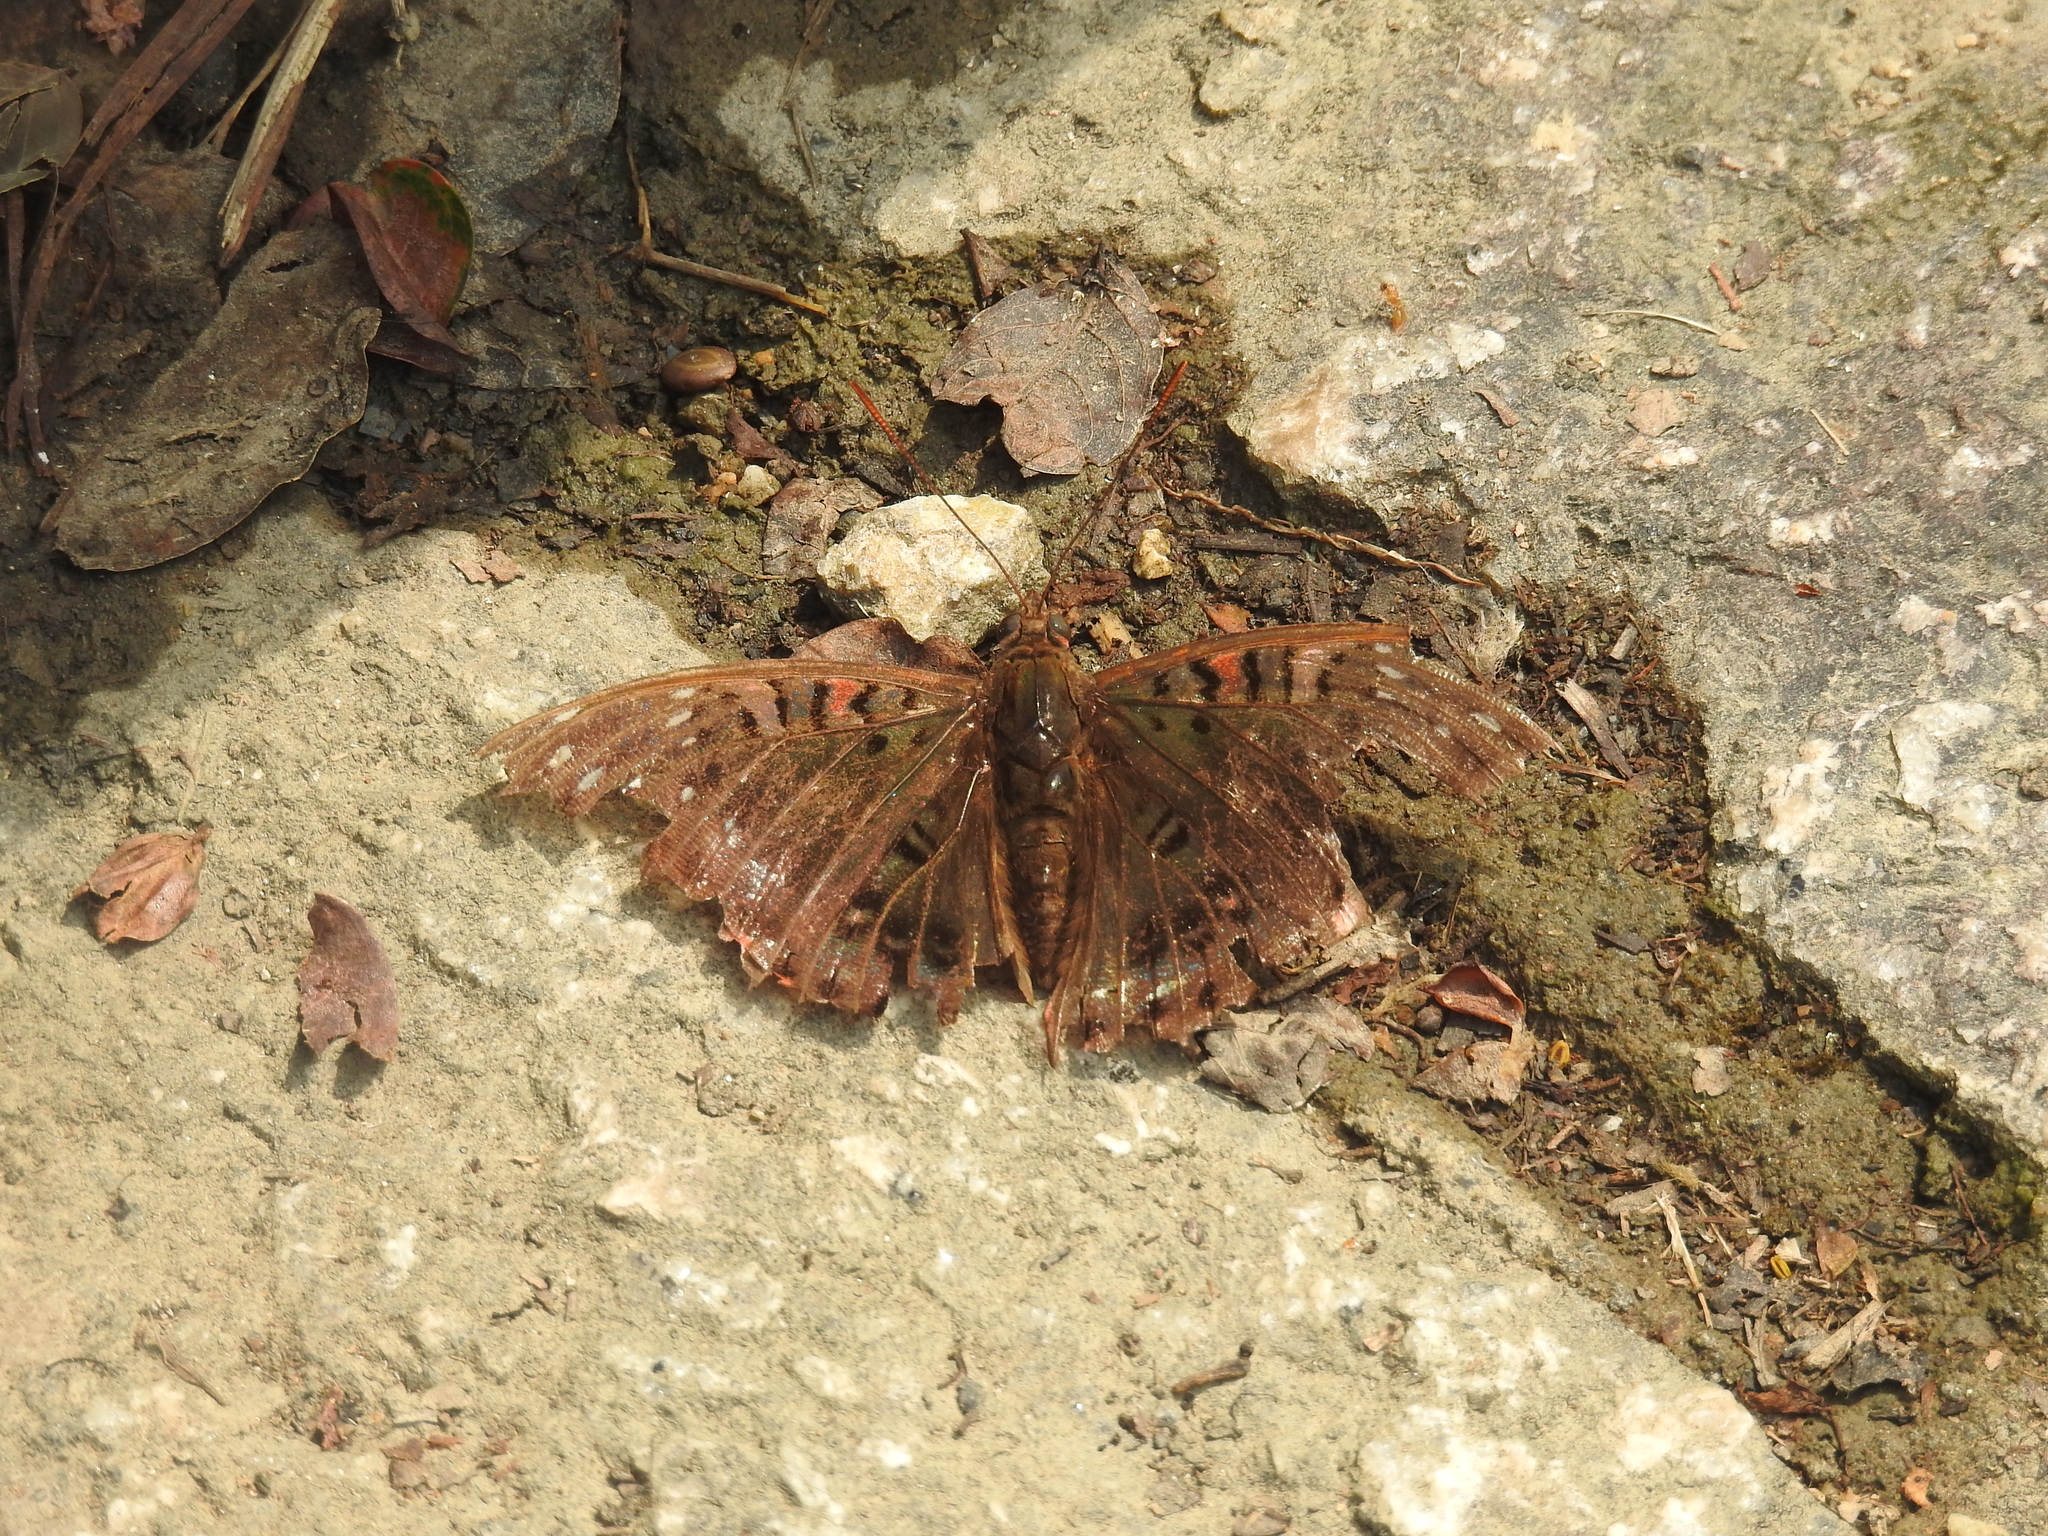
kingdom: Animalia
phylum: Arthropoda
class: Insecta
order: Lepidoptera
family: Nymphalidae
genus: Euthalia
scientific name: Euthalia lubentina
